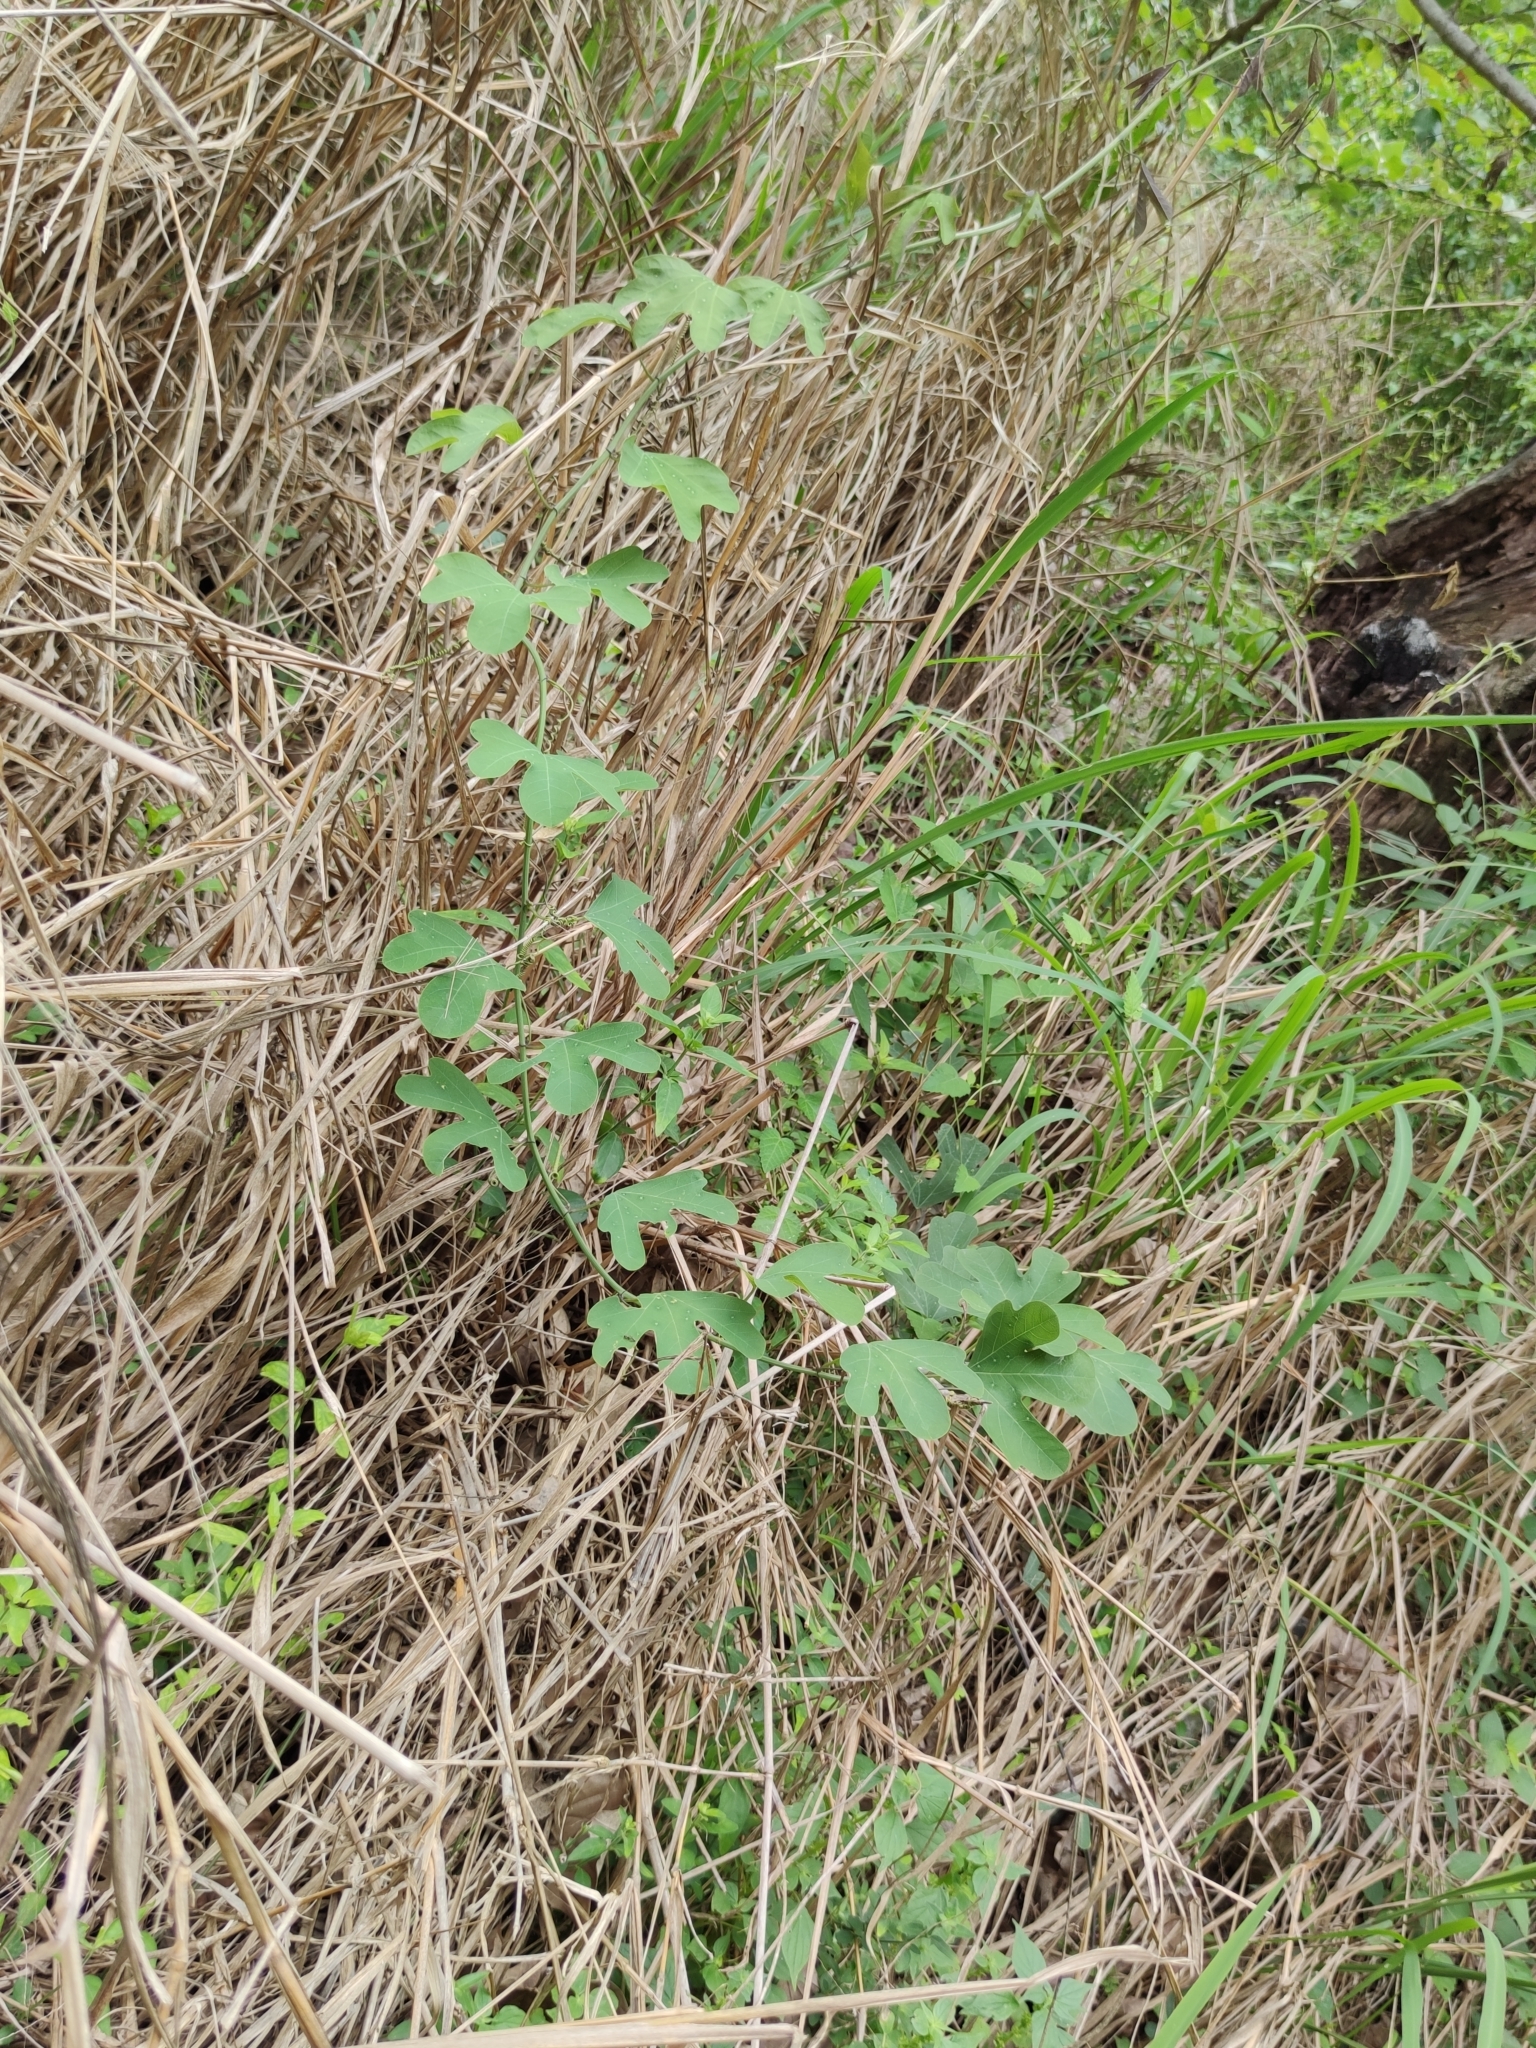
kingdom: Plantae
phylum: Tracheophyta
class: Magnoliopsida
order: Malpighiales
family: Passifloraceae
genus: Passiflora
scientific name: Passiflora affinis
